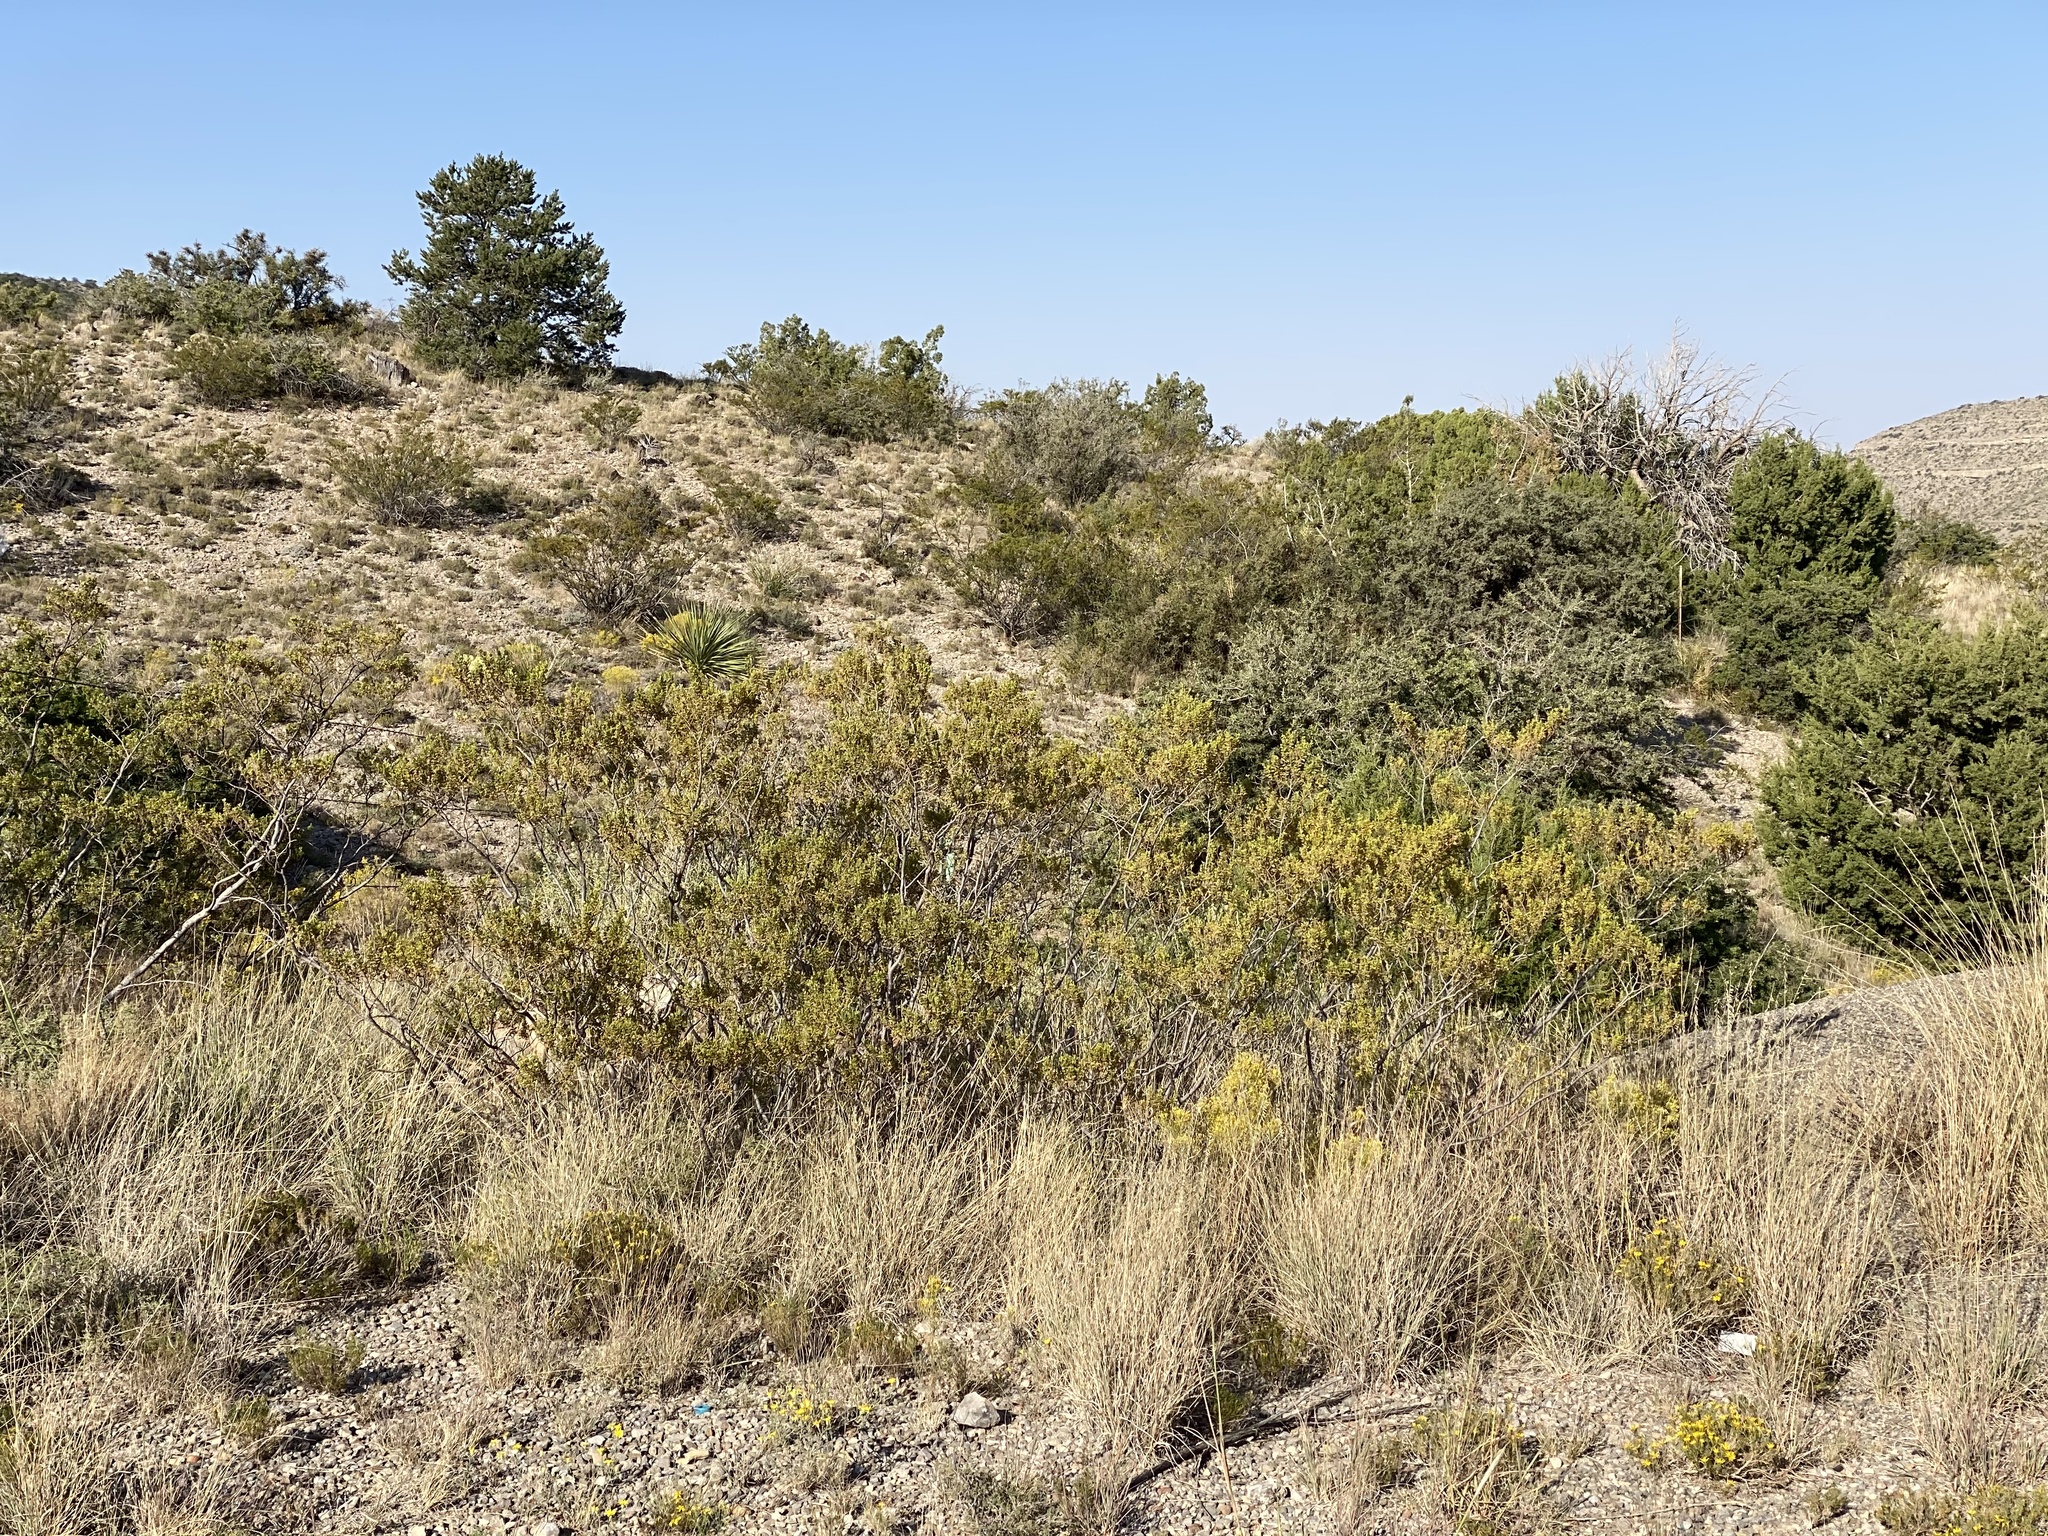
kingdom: Plantae
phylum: Tracheophyta
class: Magnoliopsida
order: Zygophyllales
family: Zygophyllaceae
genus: Larrea
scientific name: Larrea tridentata
